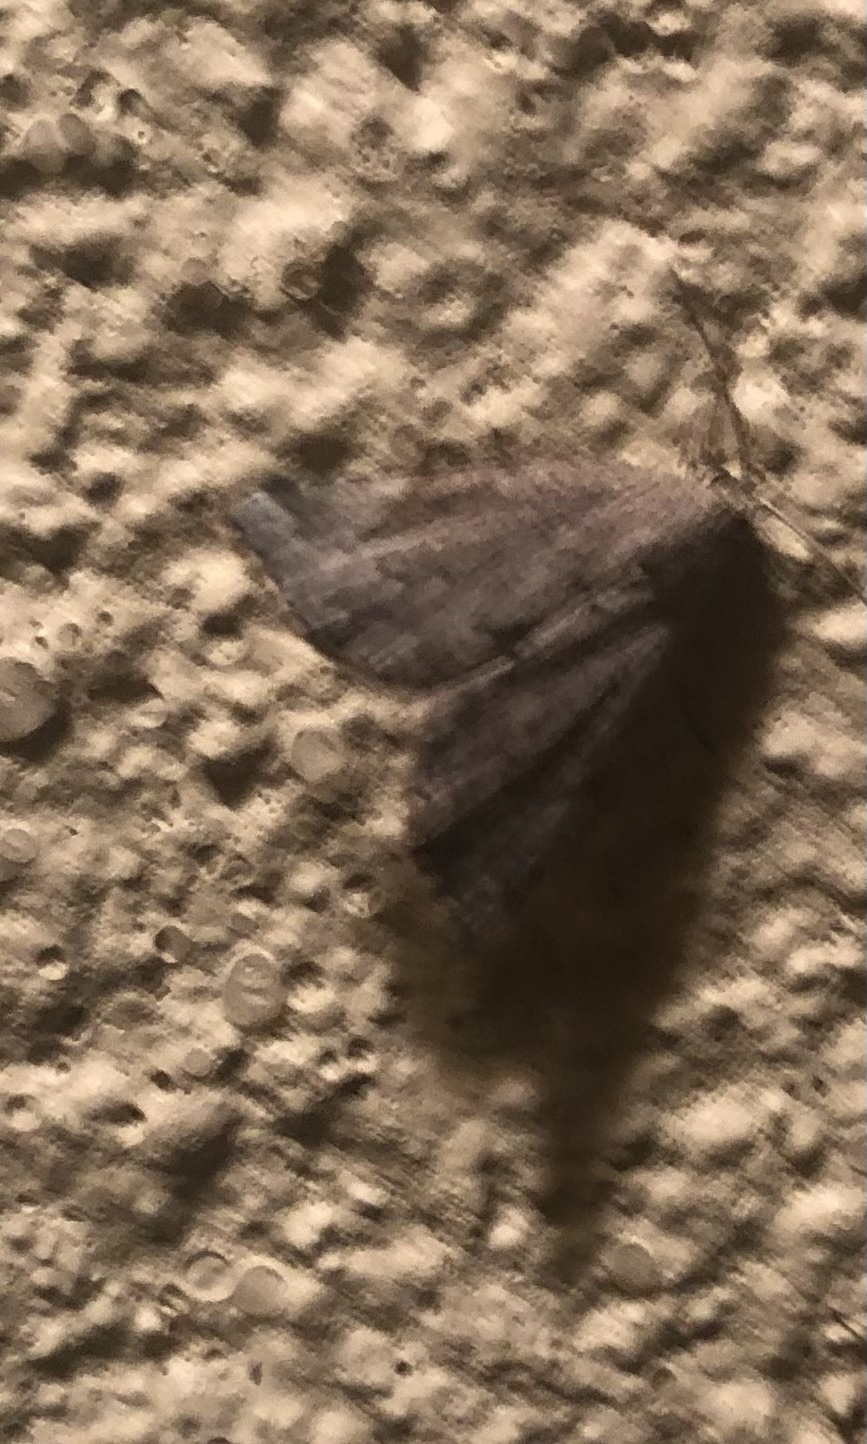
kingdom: Animalia
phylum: Arthropoda
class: Insecta
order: Lepidoptera
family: Erebidae
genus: Cutina
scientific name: Cutina albopunctella
